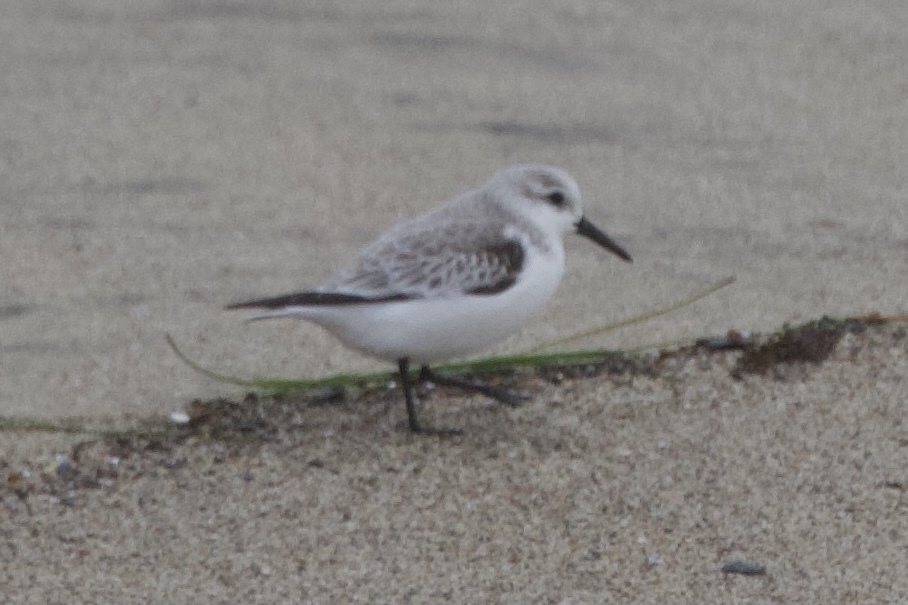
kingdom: Animalia
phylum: Chordata
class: Aves
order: Charadriiformes
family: Scolopacidae
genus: Calidris
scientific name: Calidris alba
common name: Sanderling
